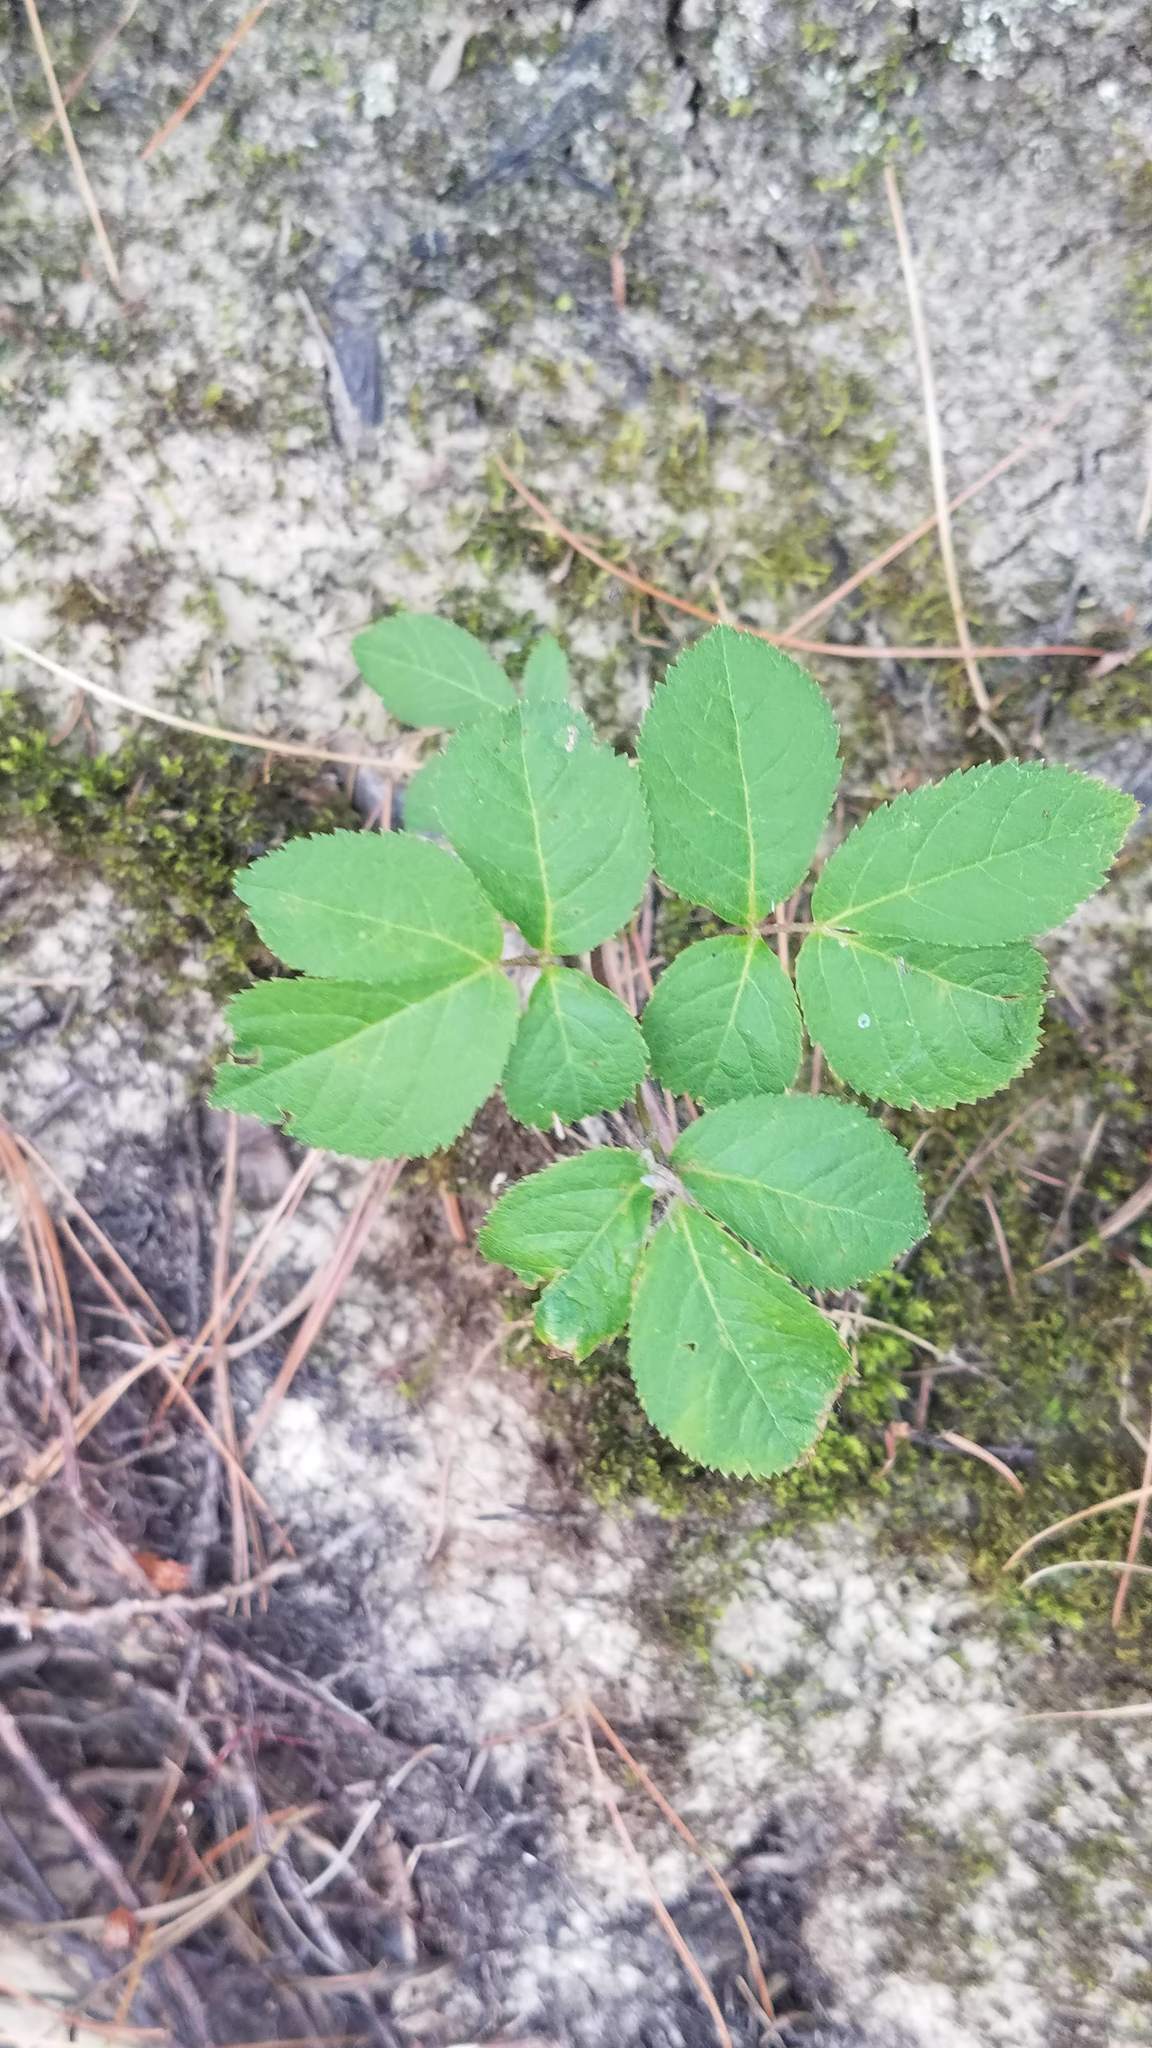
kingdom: Plantae
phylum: Tracheophyta
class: Magnoliopsida
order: Apiales
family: Araliaceae
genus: Aralia
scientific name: Aralia nudicaulis
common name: Wild sarsaparilla
